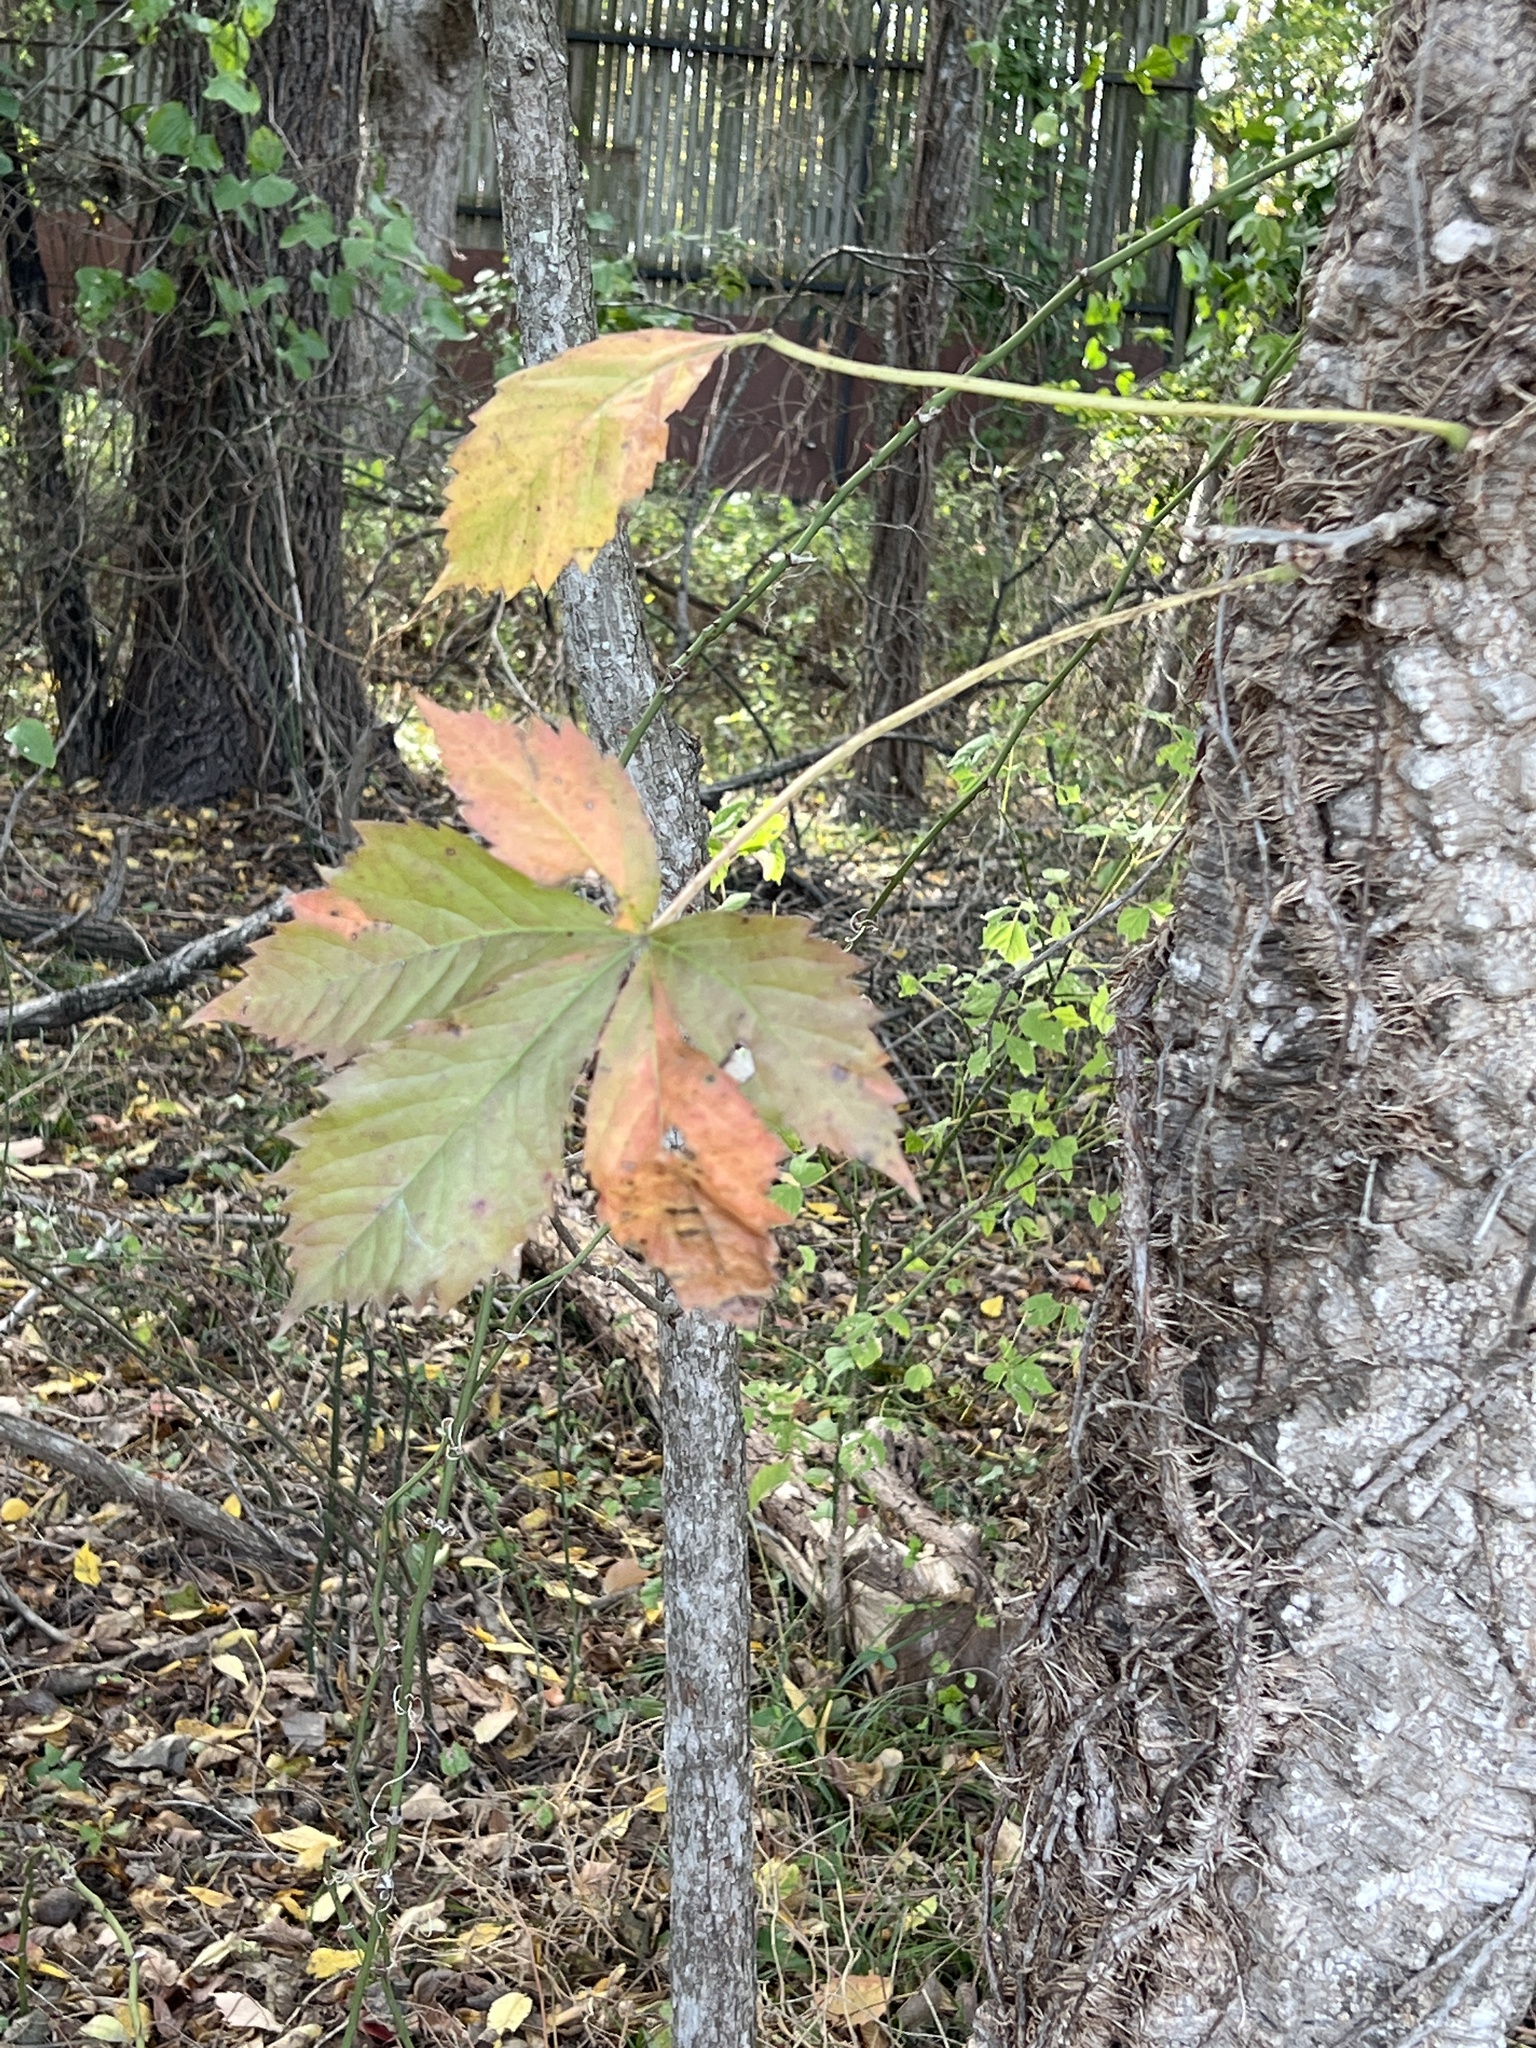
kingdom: Plantae
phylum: Tracheophyta
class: Magnoliopsida
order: Vitales
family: Vitaceae
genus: Parthenocissus
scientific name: Parthenocissus quinquefolia
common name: Virginia-creeper
